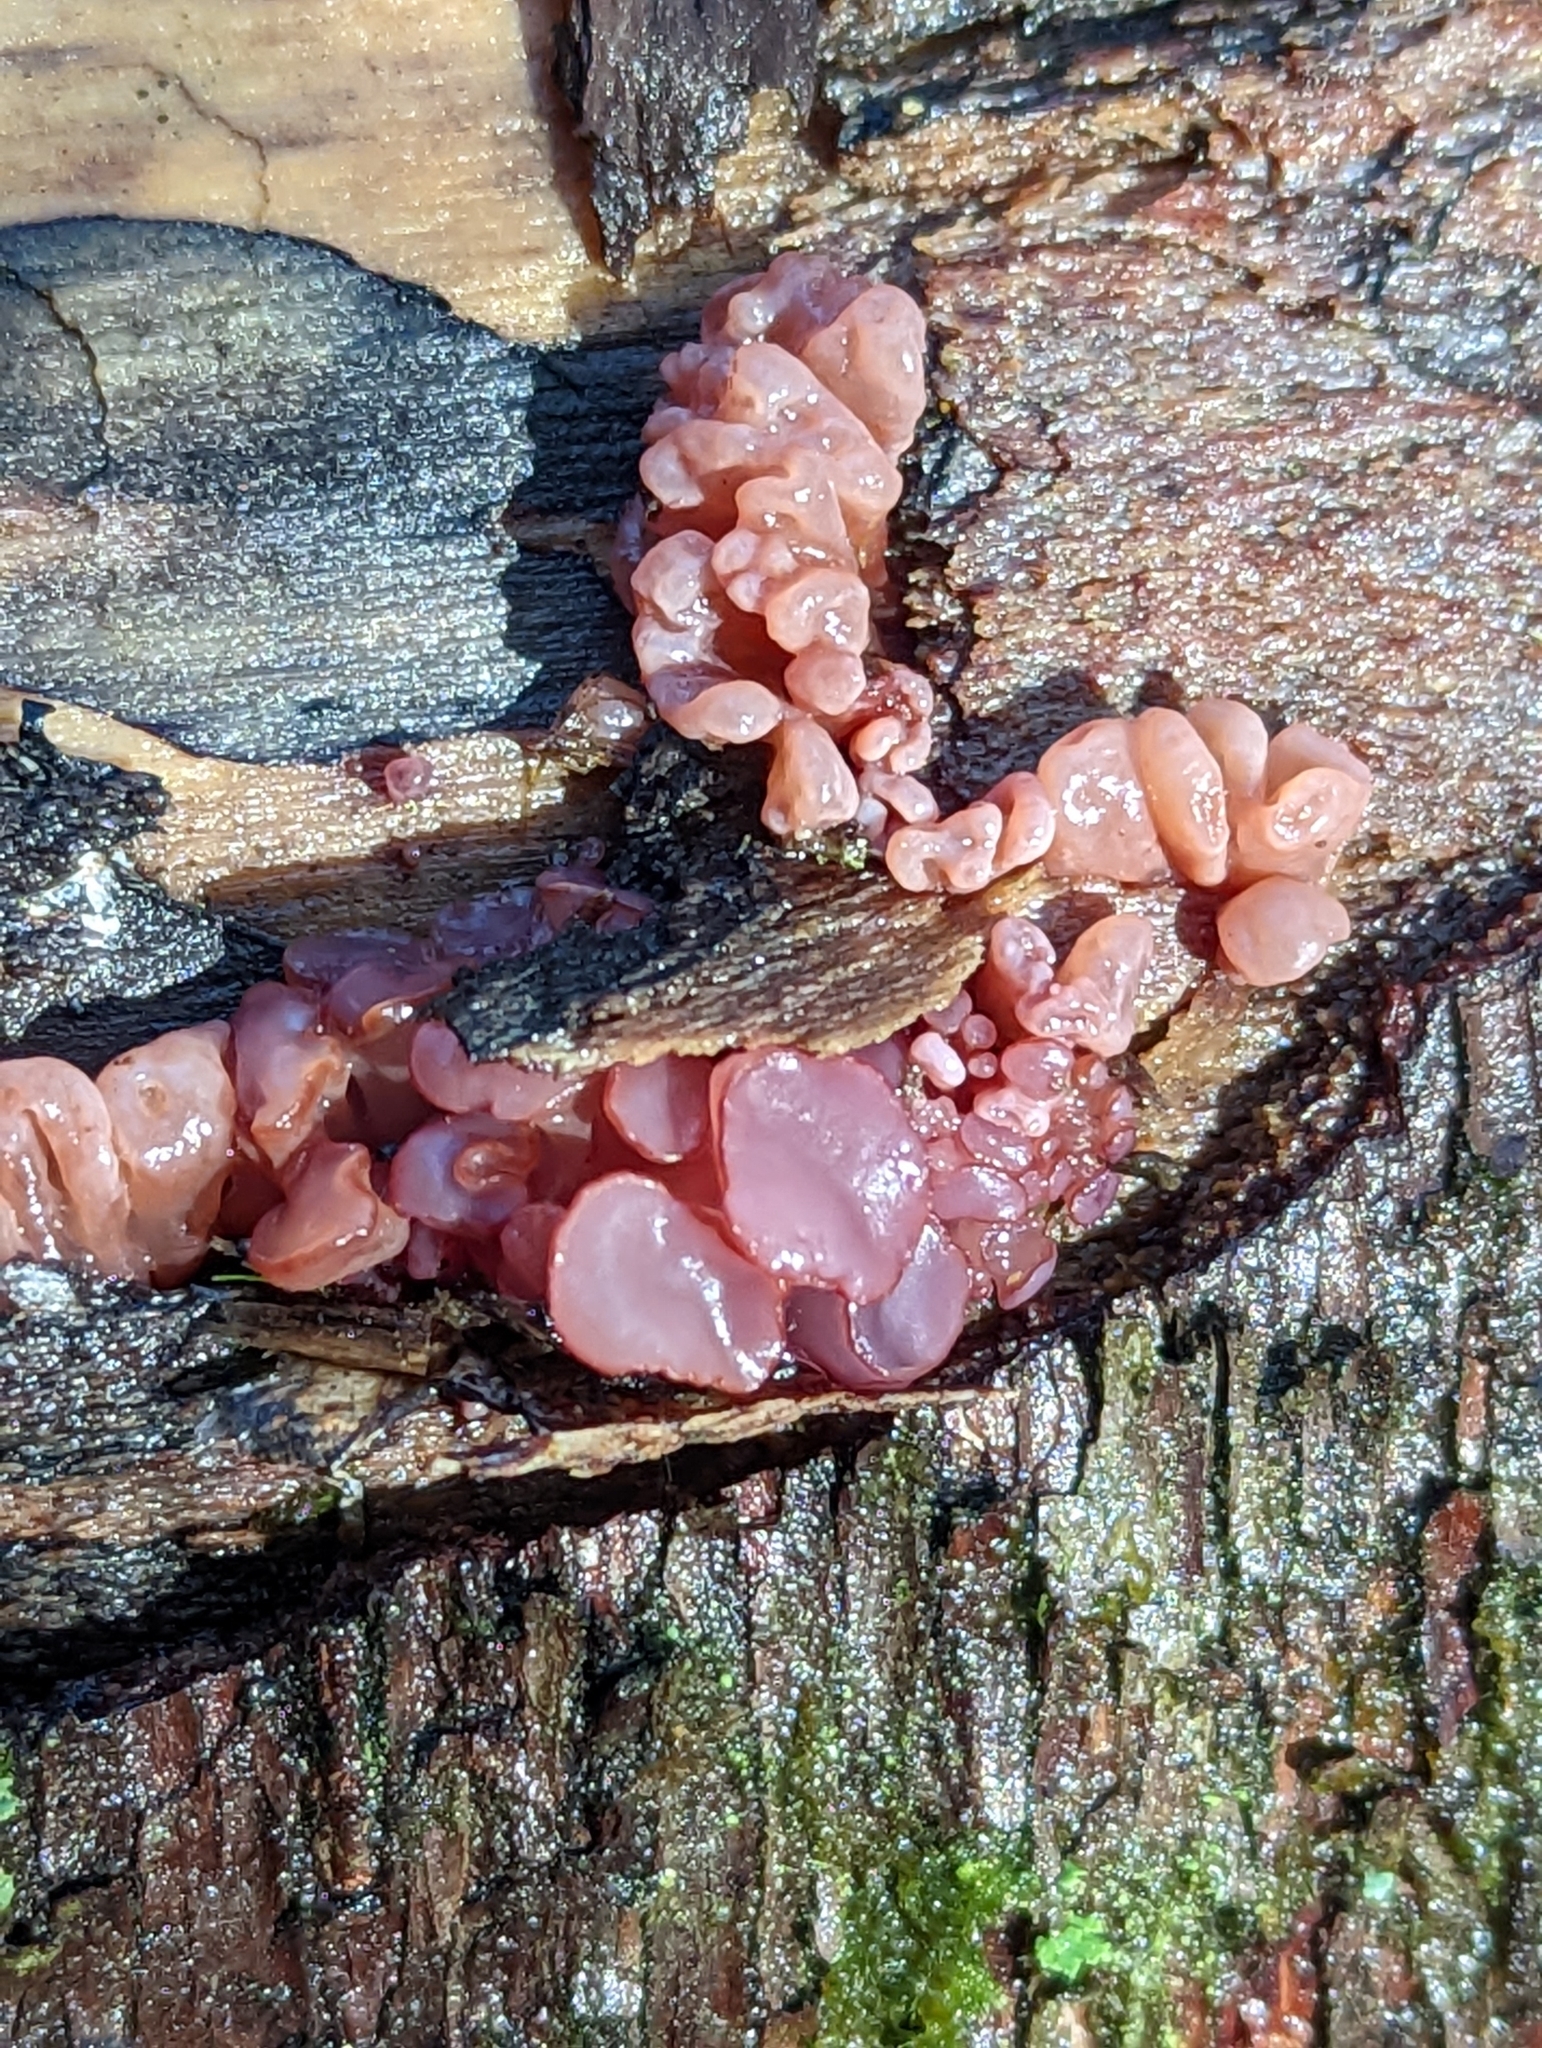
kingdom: Fungi
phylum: Ascomycota
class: Leotiomycetes
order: Helotiales
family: Gelatinodiscaceae
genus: Ascocoryne
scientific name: Ascocoryne sarcoides
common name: Purple jellydisc
